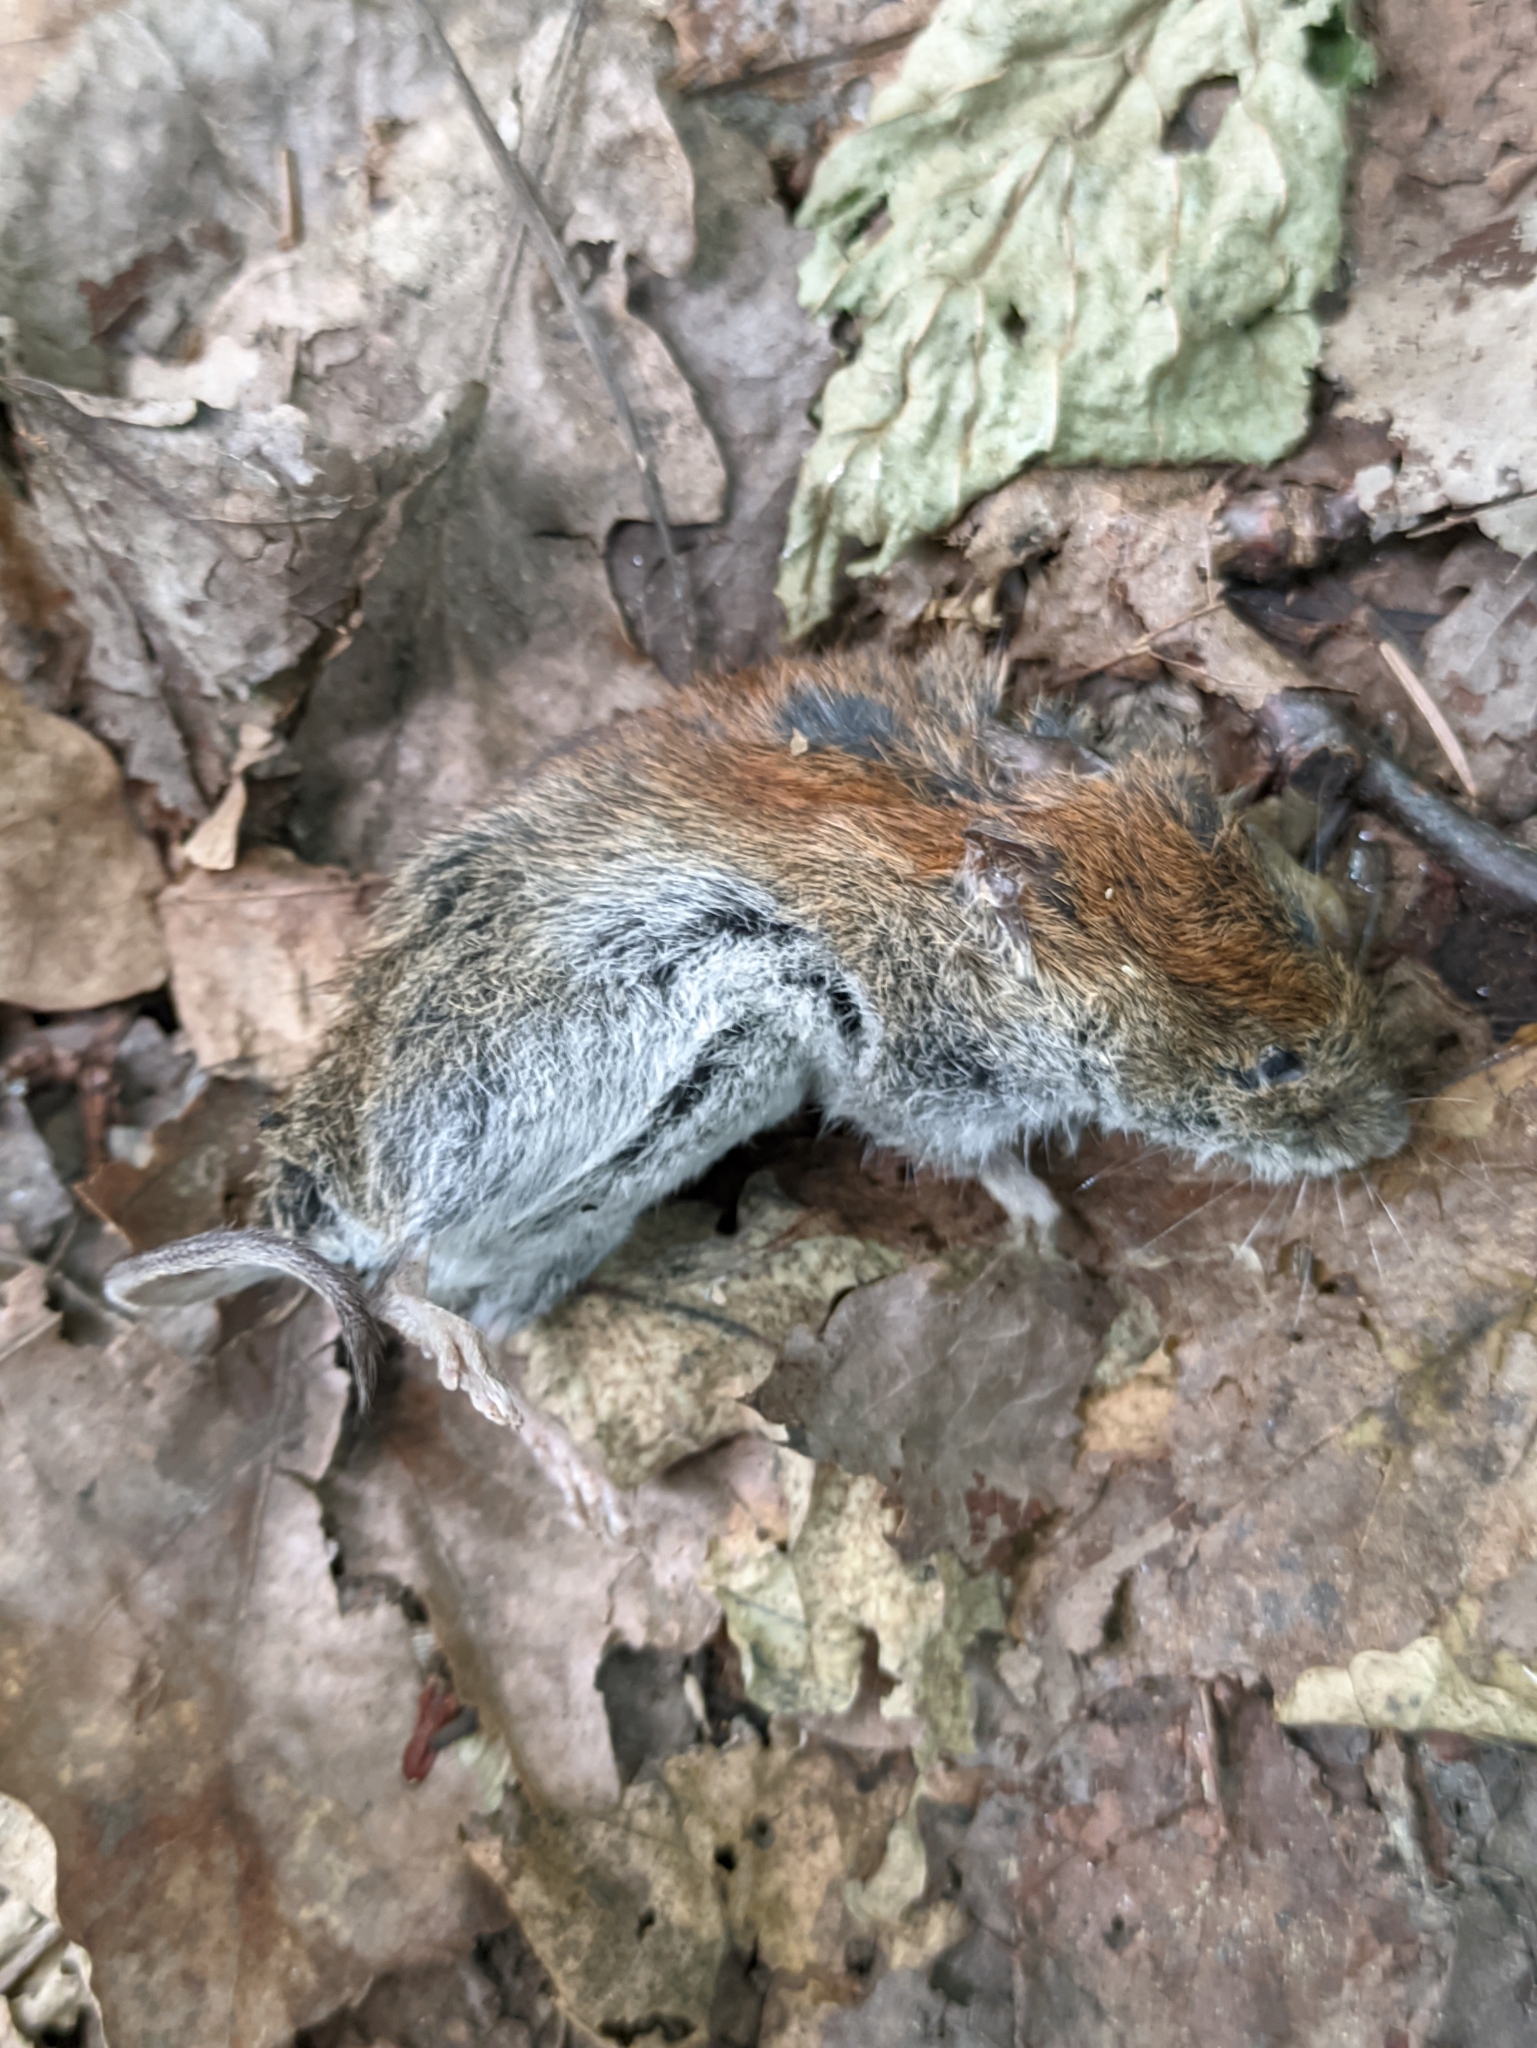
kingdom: Animalia
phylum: Chordata
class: Mammalia
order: Rodentia
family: Cricetidae
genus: Myodes
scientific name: Myodes glareolus
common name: Bank vole
